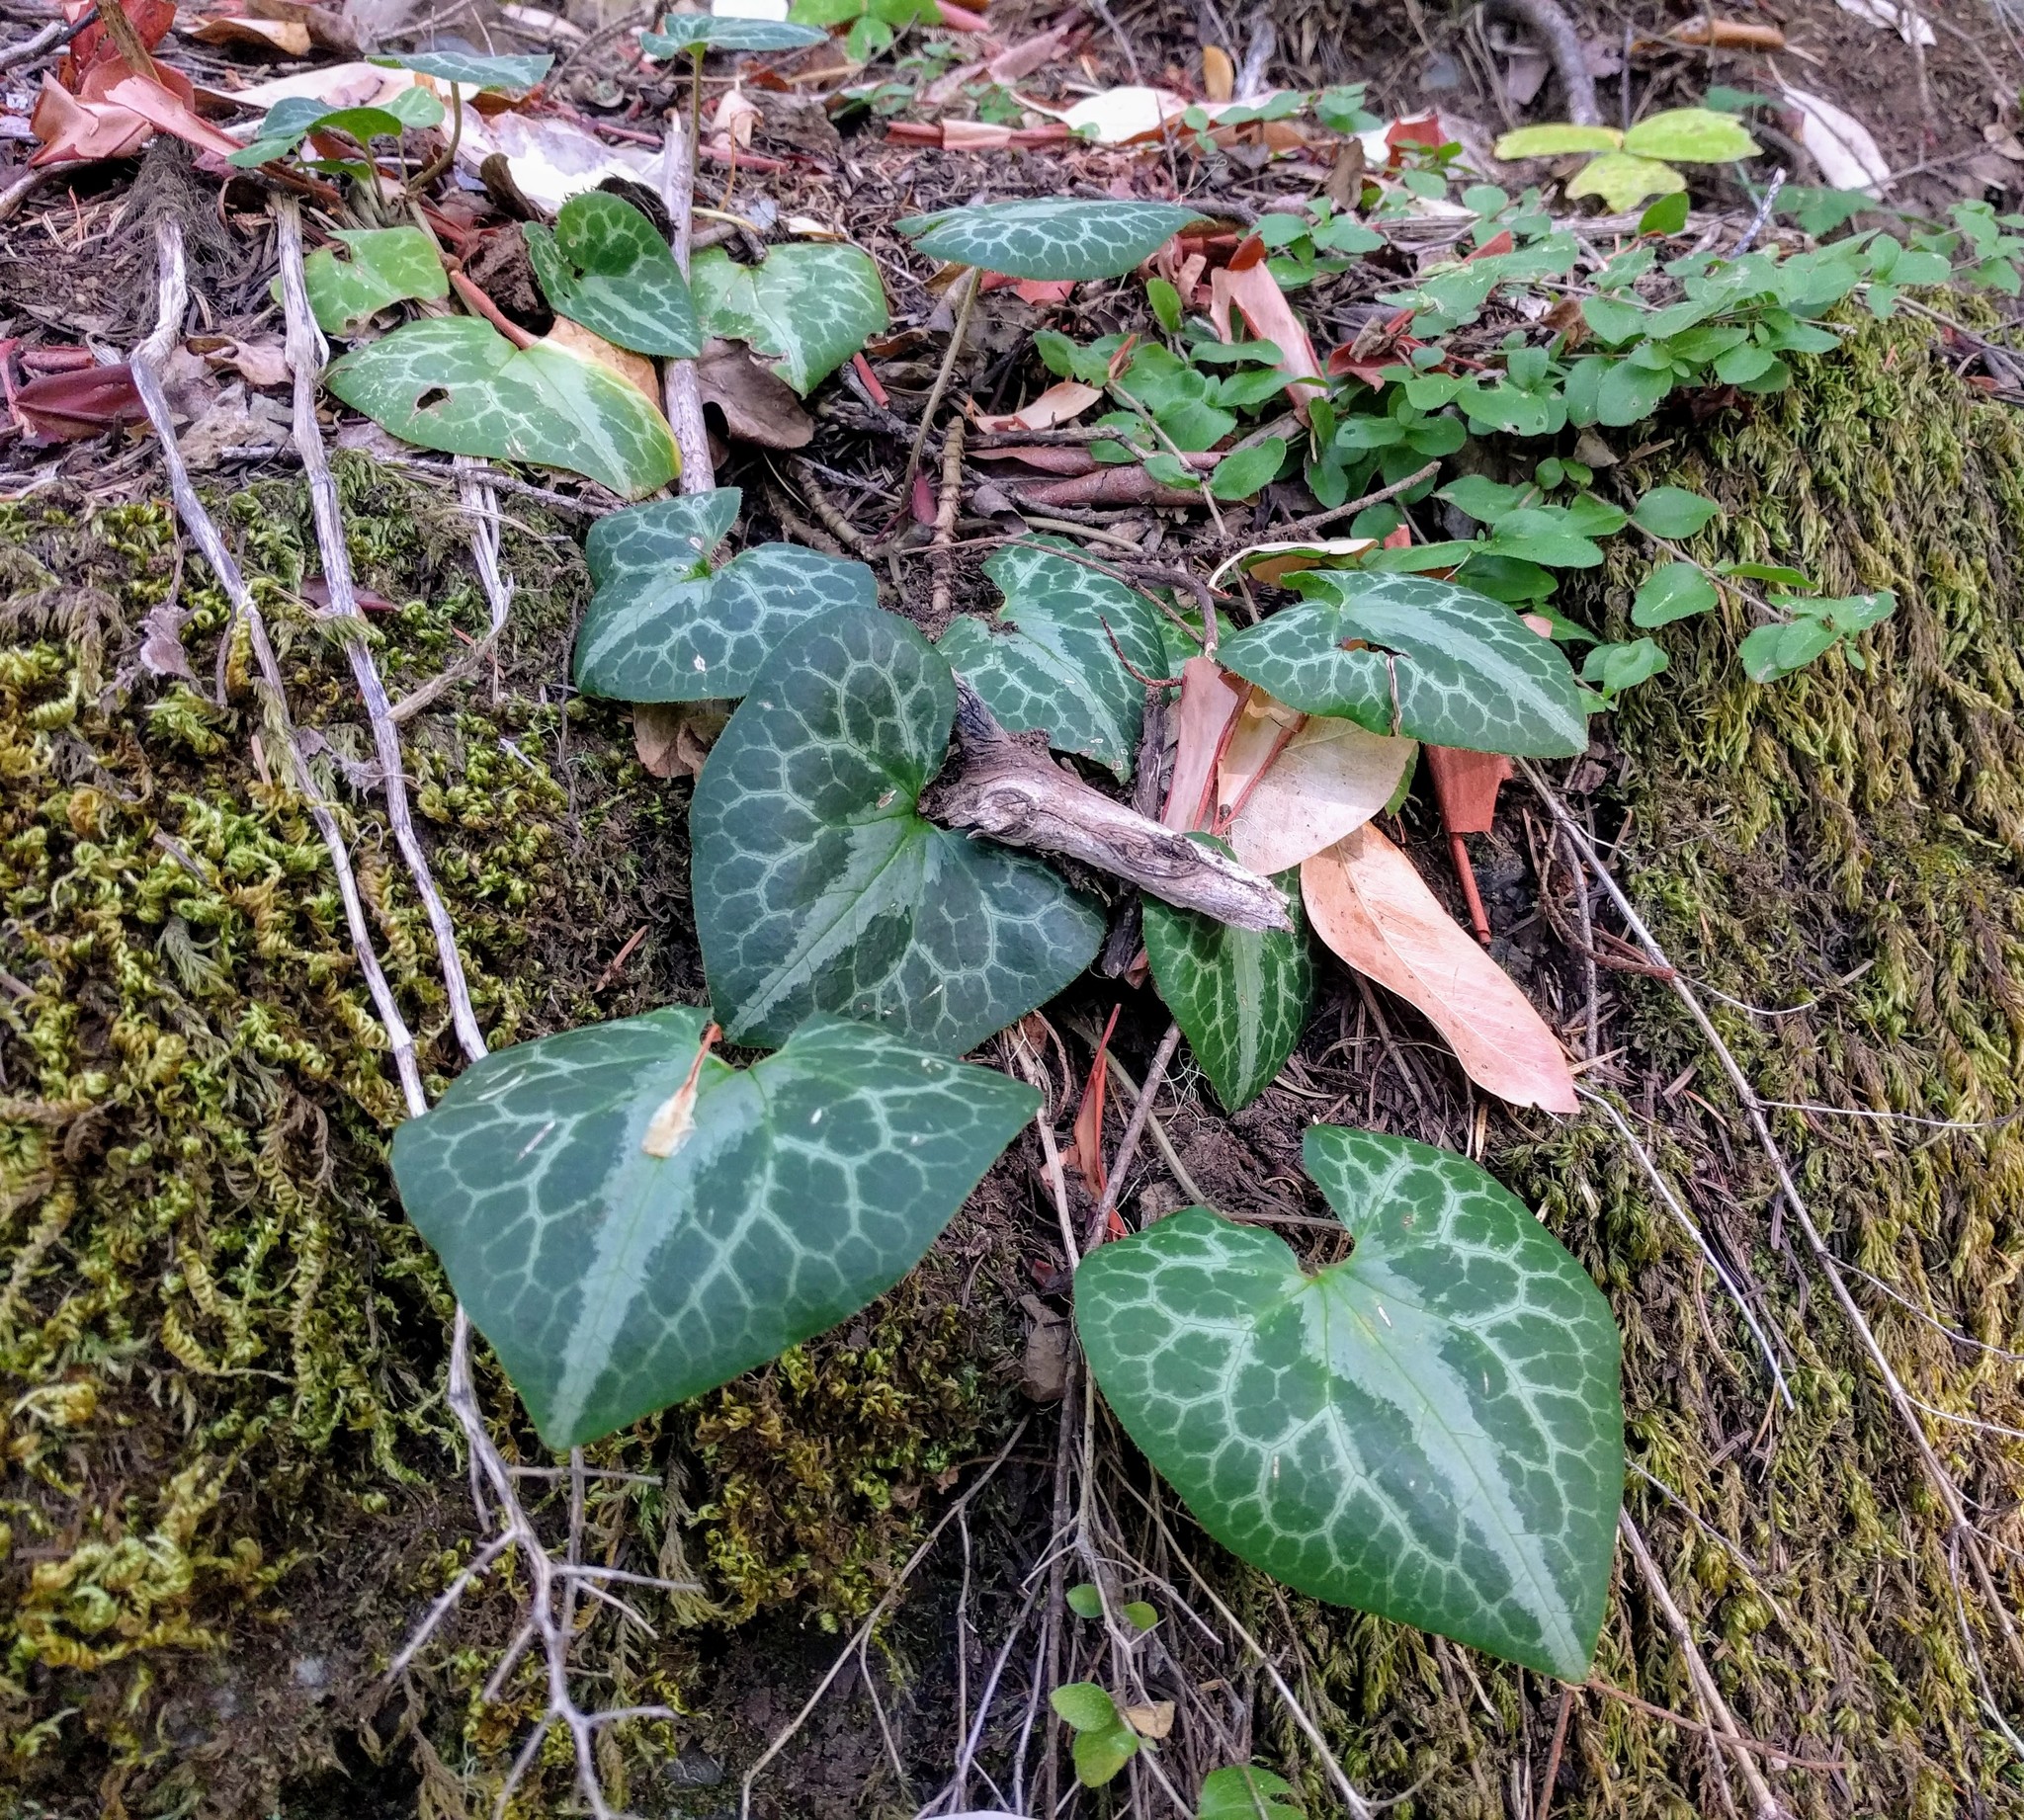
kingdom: Plantae
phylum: Tracheophyta
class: Magnoliopsida
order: Piperales
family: Aristolochiaceae
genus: Asarum
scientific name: Asarum marmoratum
